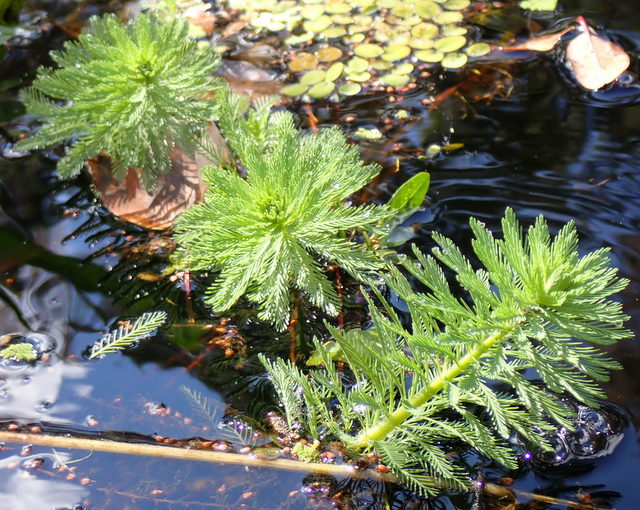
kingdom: Plantae
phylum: Tracheophyta
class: Magnoliopsida
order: Saxifragales
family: Haloragaceae
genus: Myriophyllum
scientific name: Myriophyllum aquaticum
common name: Parrot's feather
